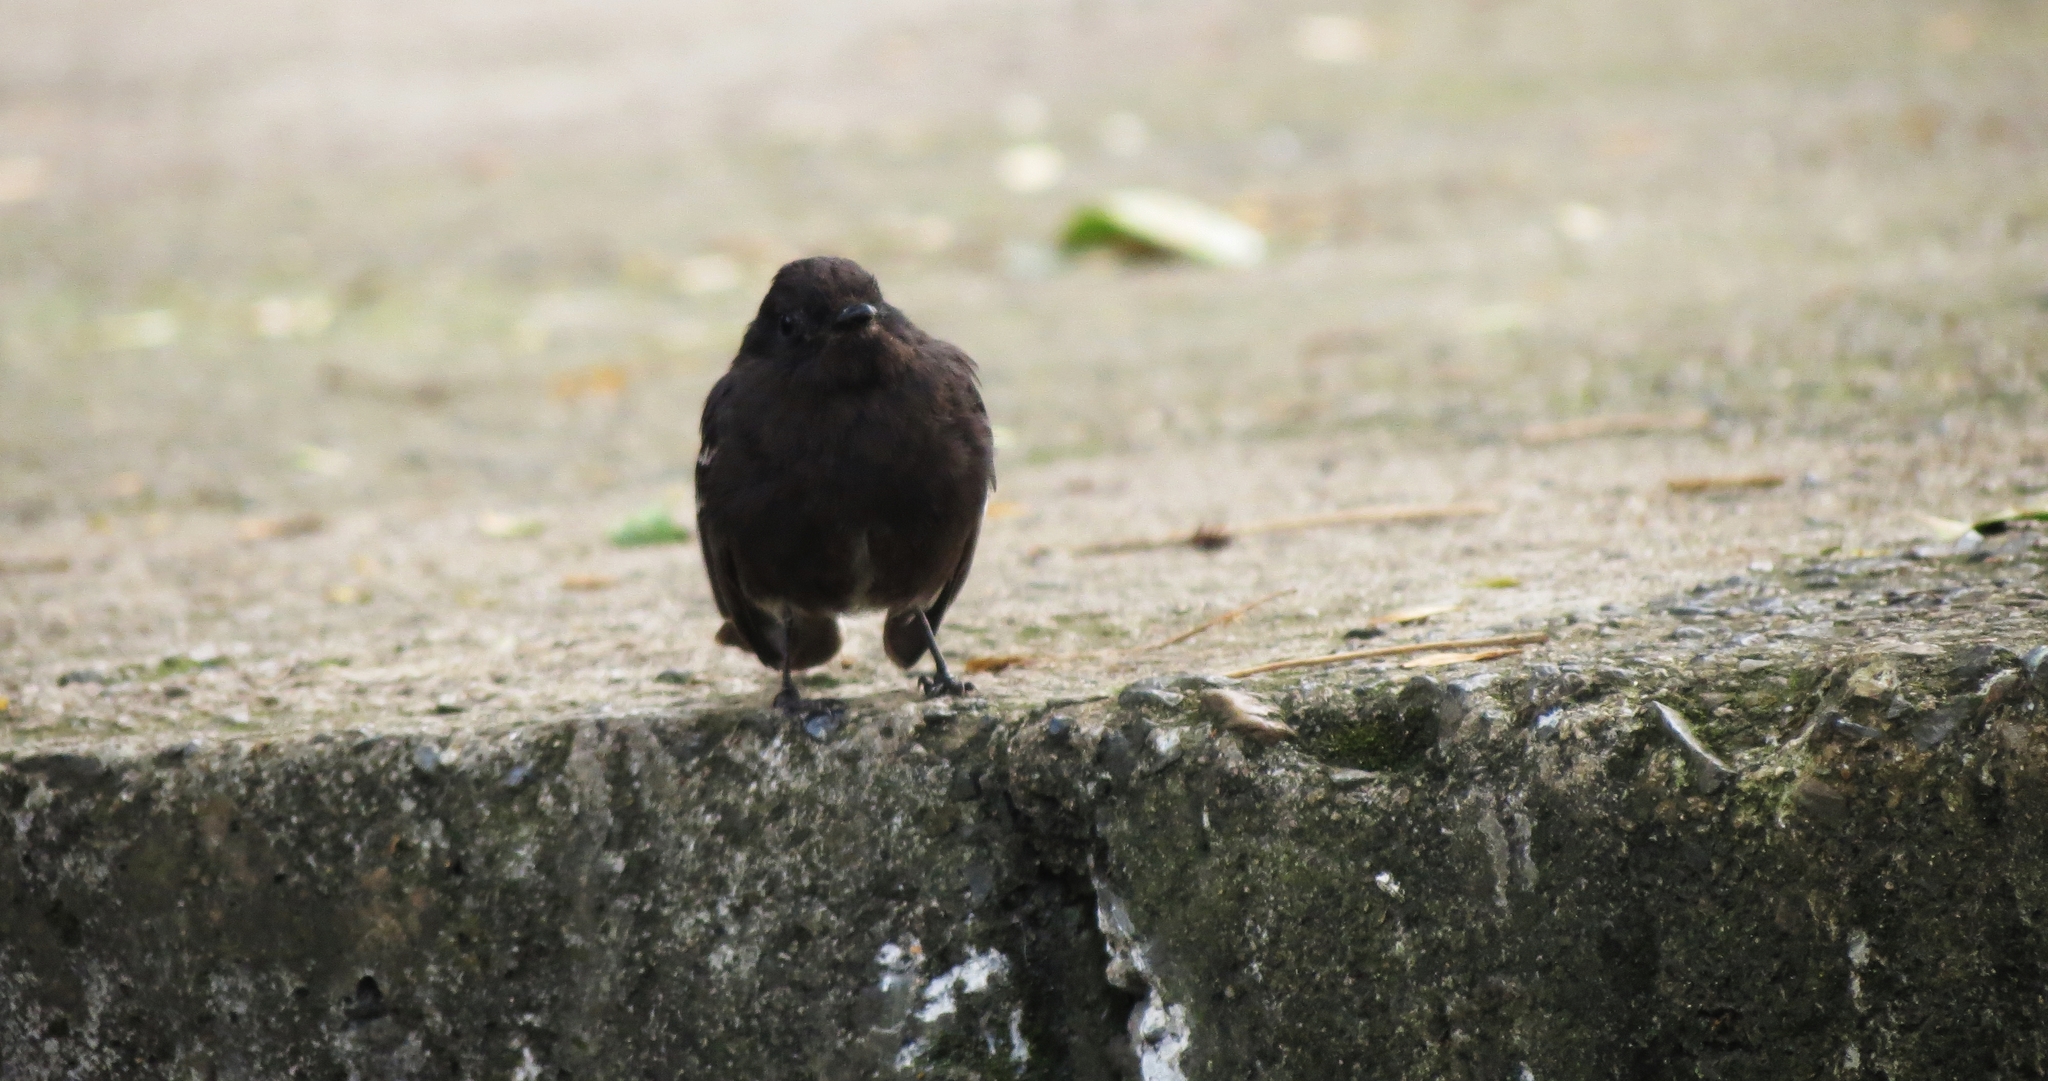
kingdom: Animalia
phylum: Chordata
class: Aves
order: Passeriformes
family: Tyrannidae
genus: Sayornis
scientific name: Sayornis nigricans
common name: Black phoebe
